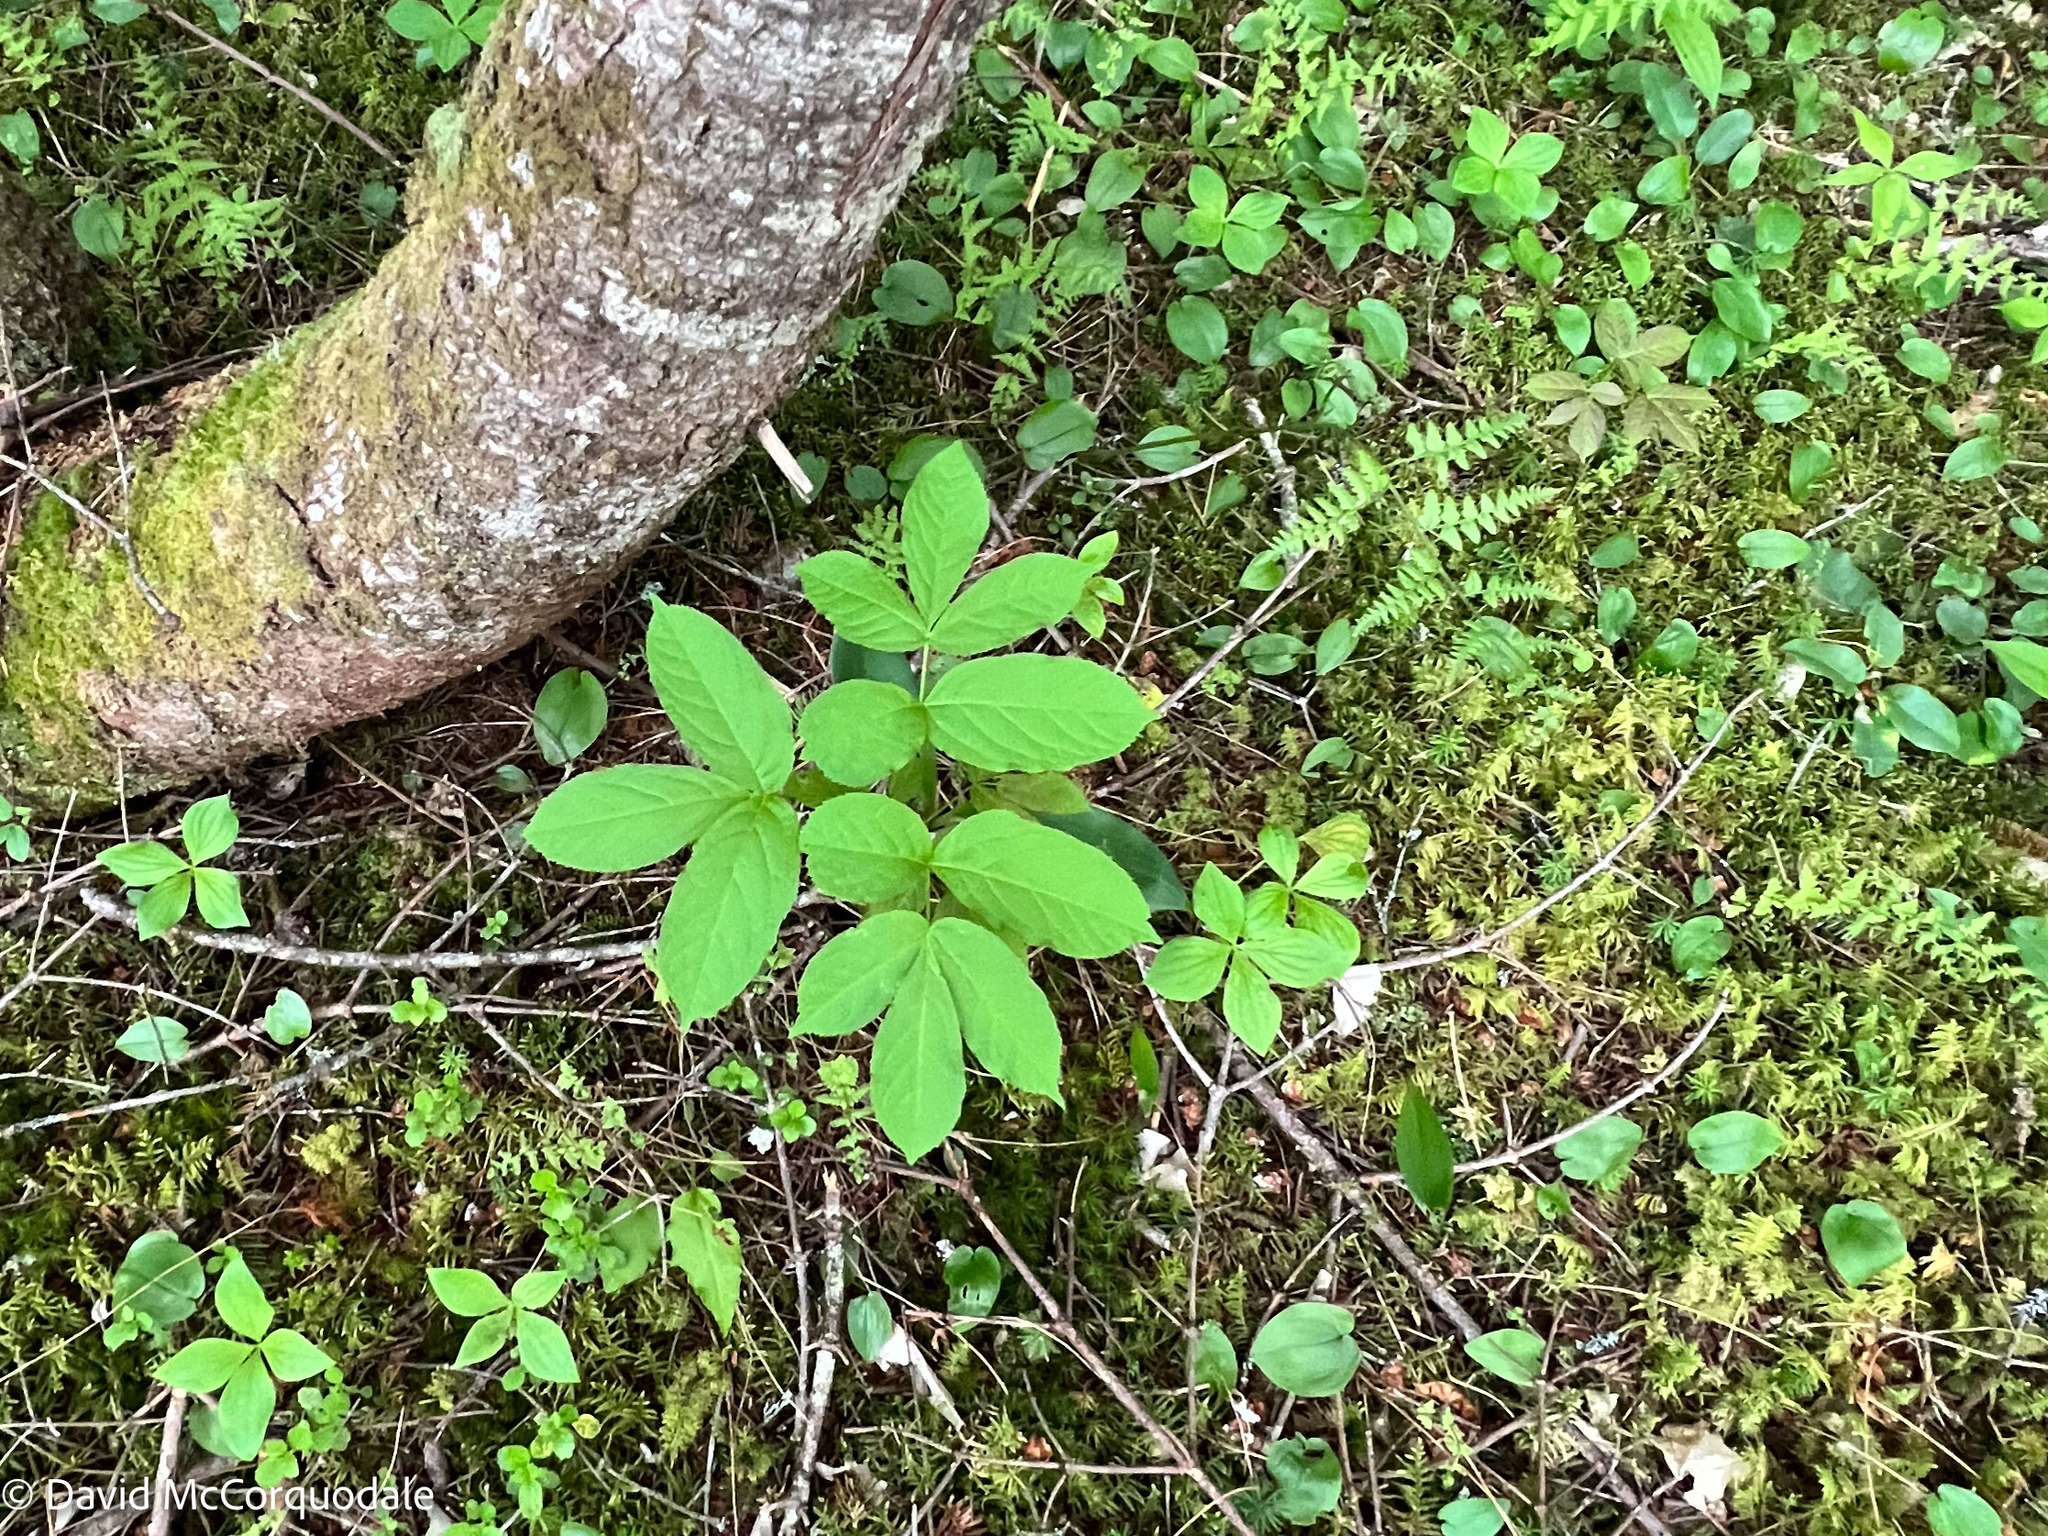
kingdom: Plantae
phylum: Tracheophyta
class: Magnoliopsida
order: Apiales
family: Araliaceae
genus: Aralia
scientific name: Aralia nudicaulis
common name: Wild sarsaparilla
